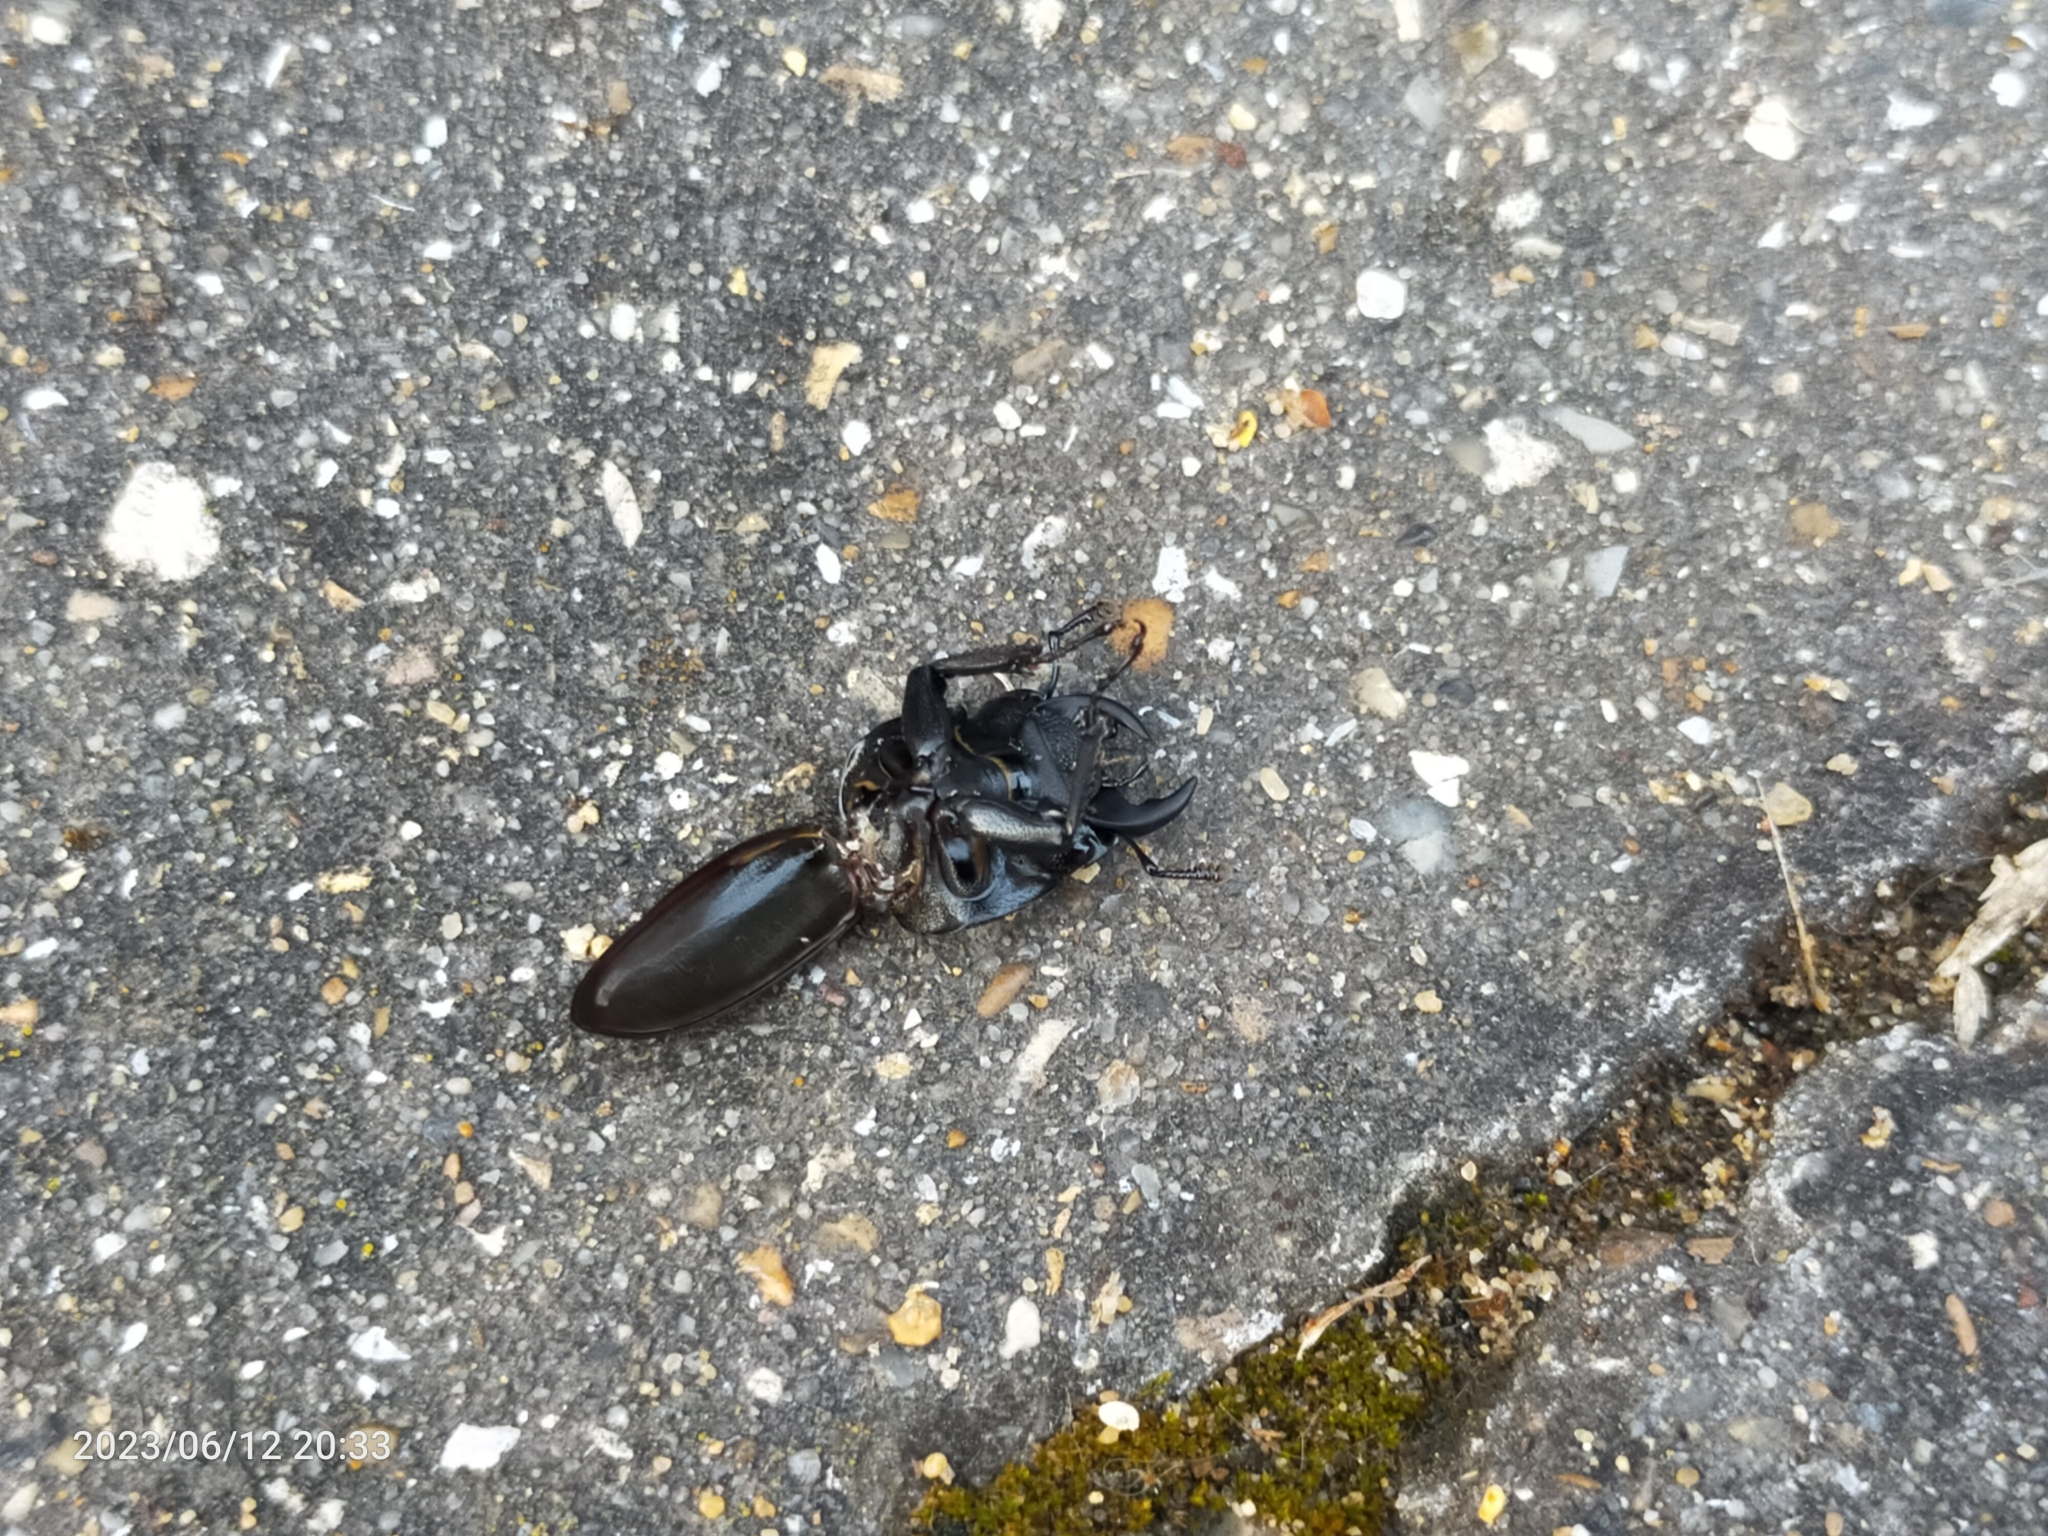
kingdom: Animalia
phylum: Arthropoda
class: Insecta
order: Coleoptera
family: Lucanidae
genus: Dorcus
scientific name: Dorcus parallelipipedus
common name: Lesser stag beetle
